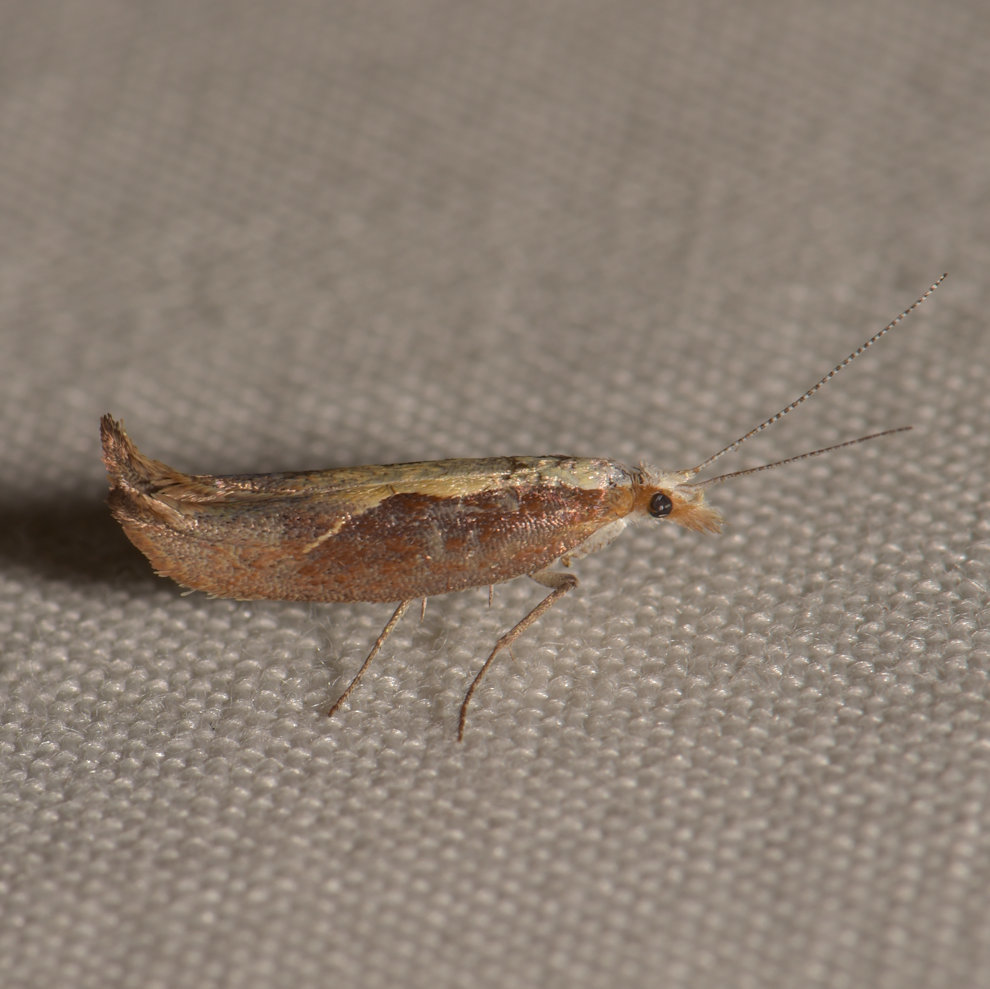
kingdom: Animalia
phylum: Arthropoda
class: Insecta
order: Lepidoptera
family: Ypsolophidae
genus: Ypsolopha
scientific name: Ypsolopha dentella
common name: Honeysuckle moth
